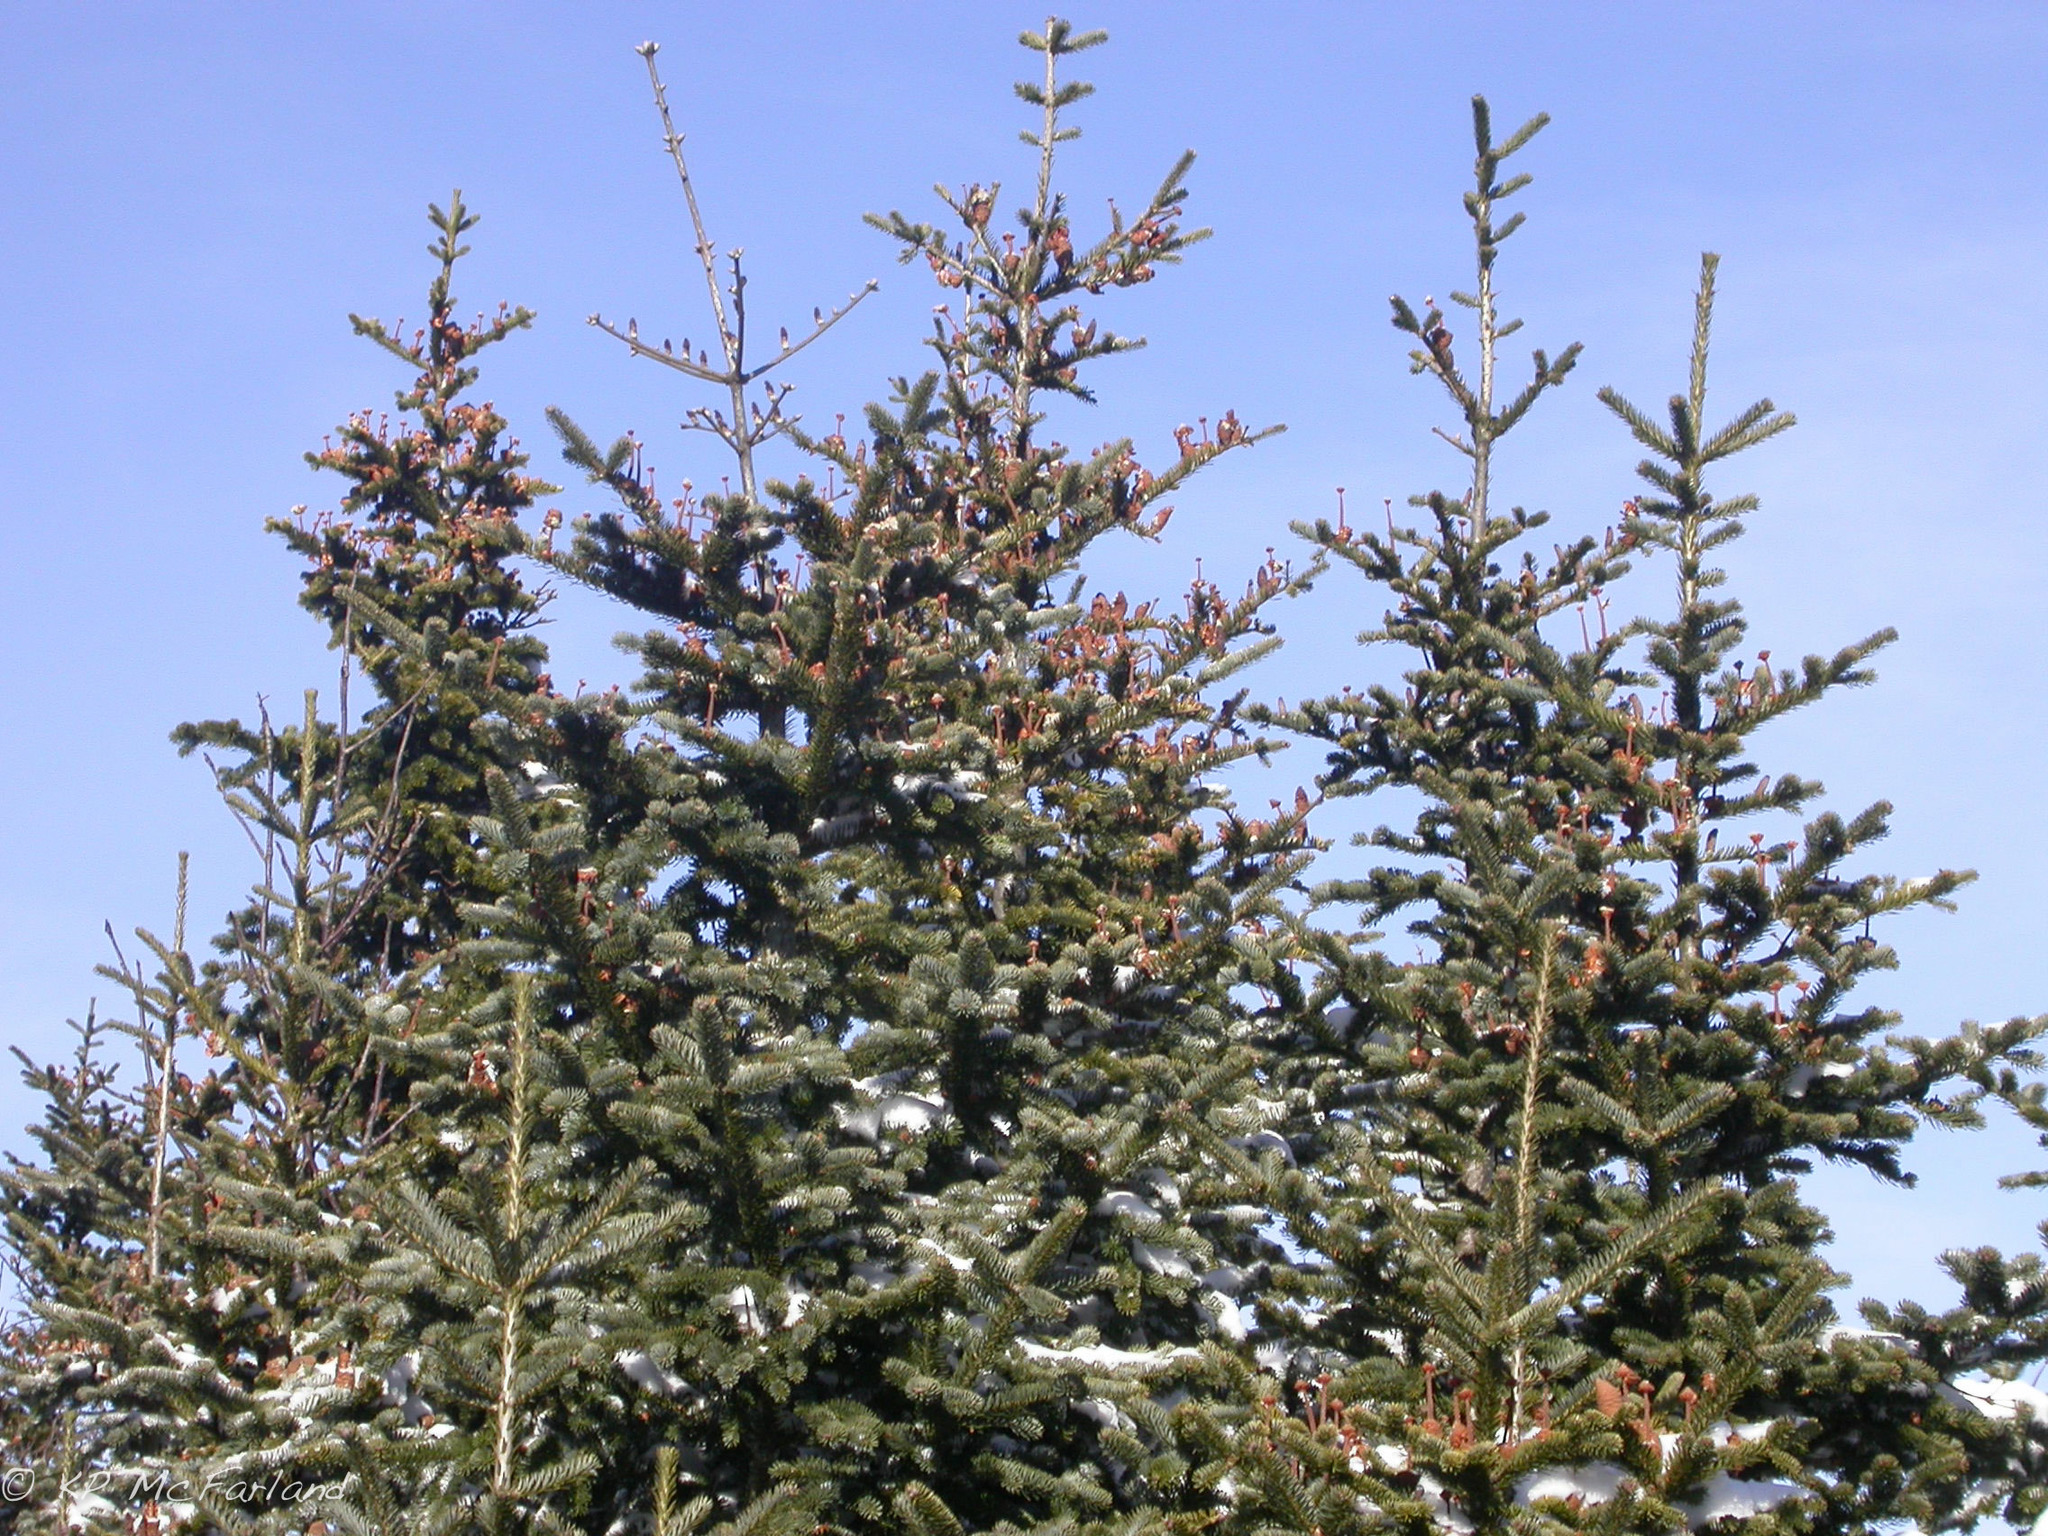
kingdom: Plantae
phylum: Tracheophyta
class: Pinopsida
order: Pinales
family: Pinaceae
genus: Abies
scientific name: Abies balsamea
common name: Balsam fir
